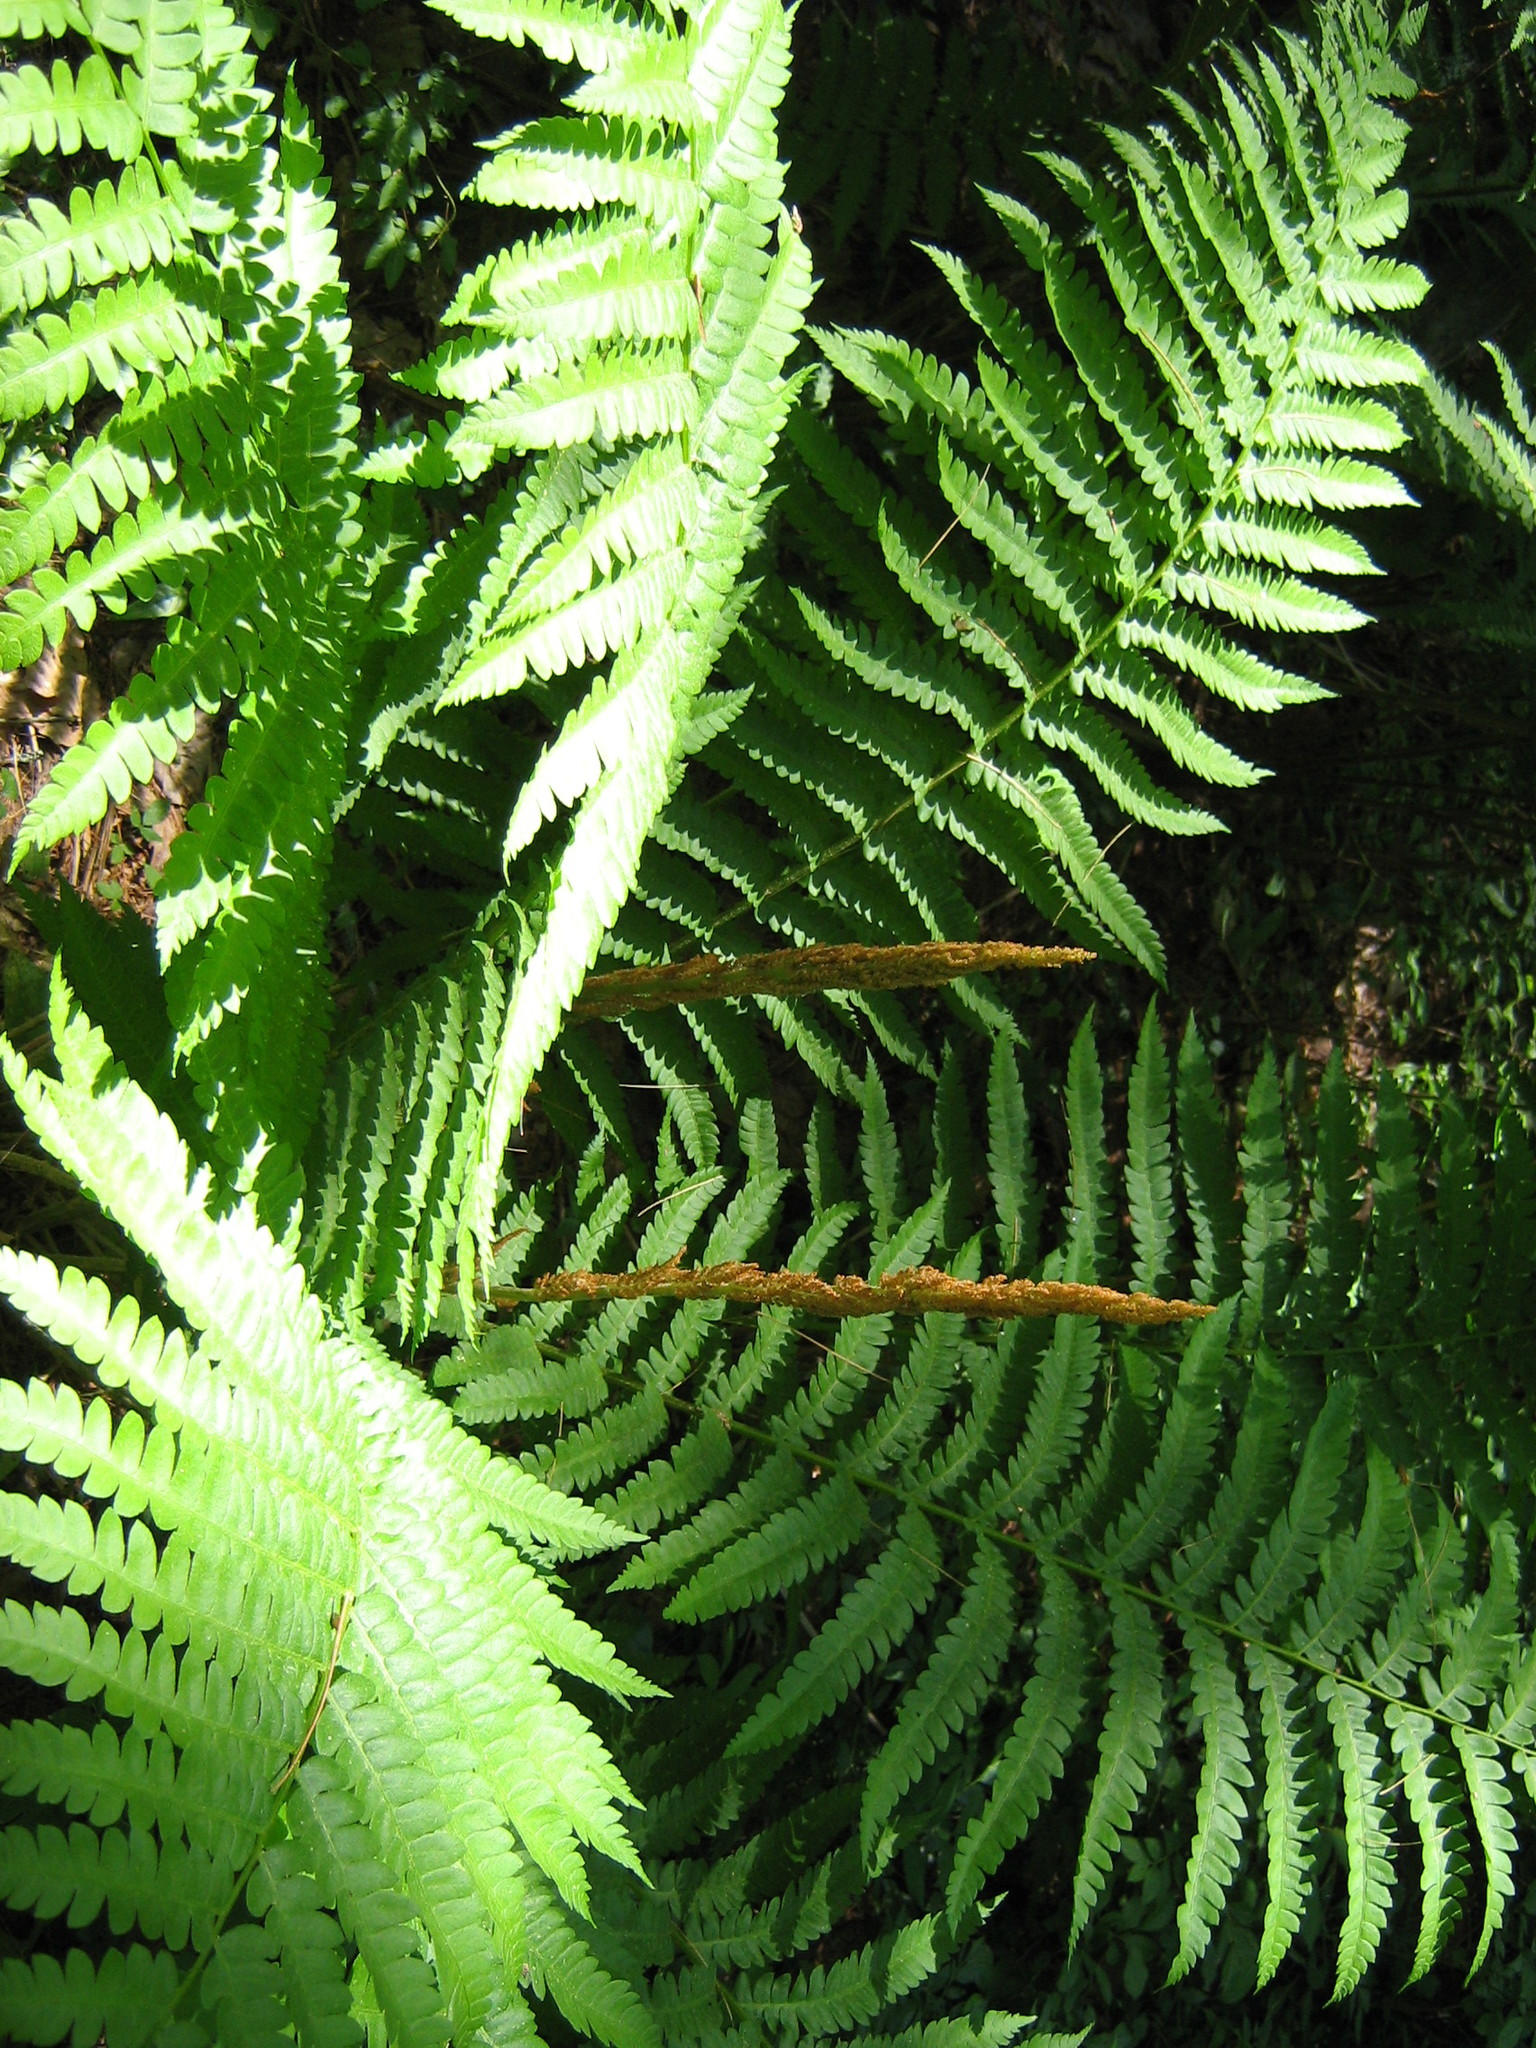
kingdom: Plantae
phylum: Tracheophyta
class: Polypodiopsida
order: Osmundales
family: Osmundaceae
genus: Osmundastrum
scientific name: Osmundastrum cinnamomeum
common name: Cinnamon fern
